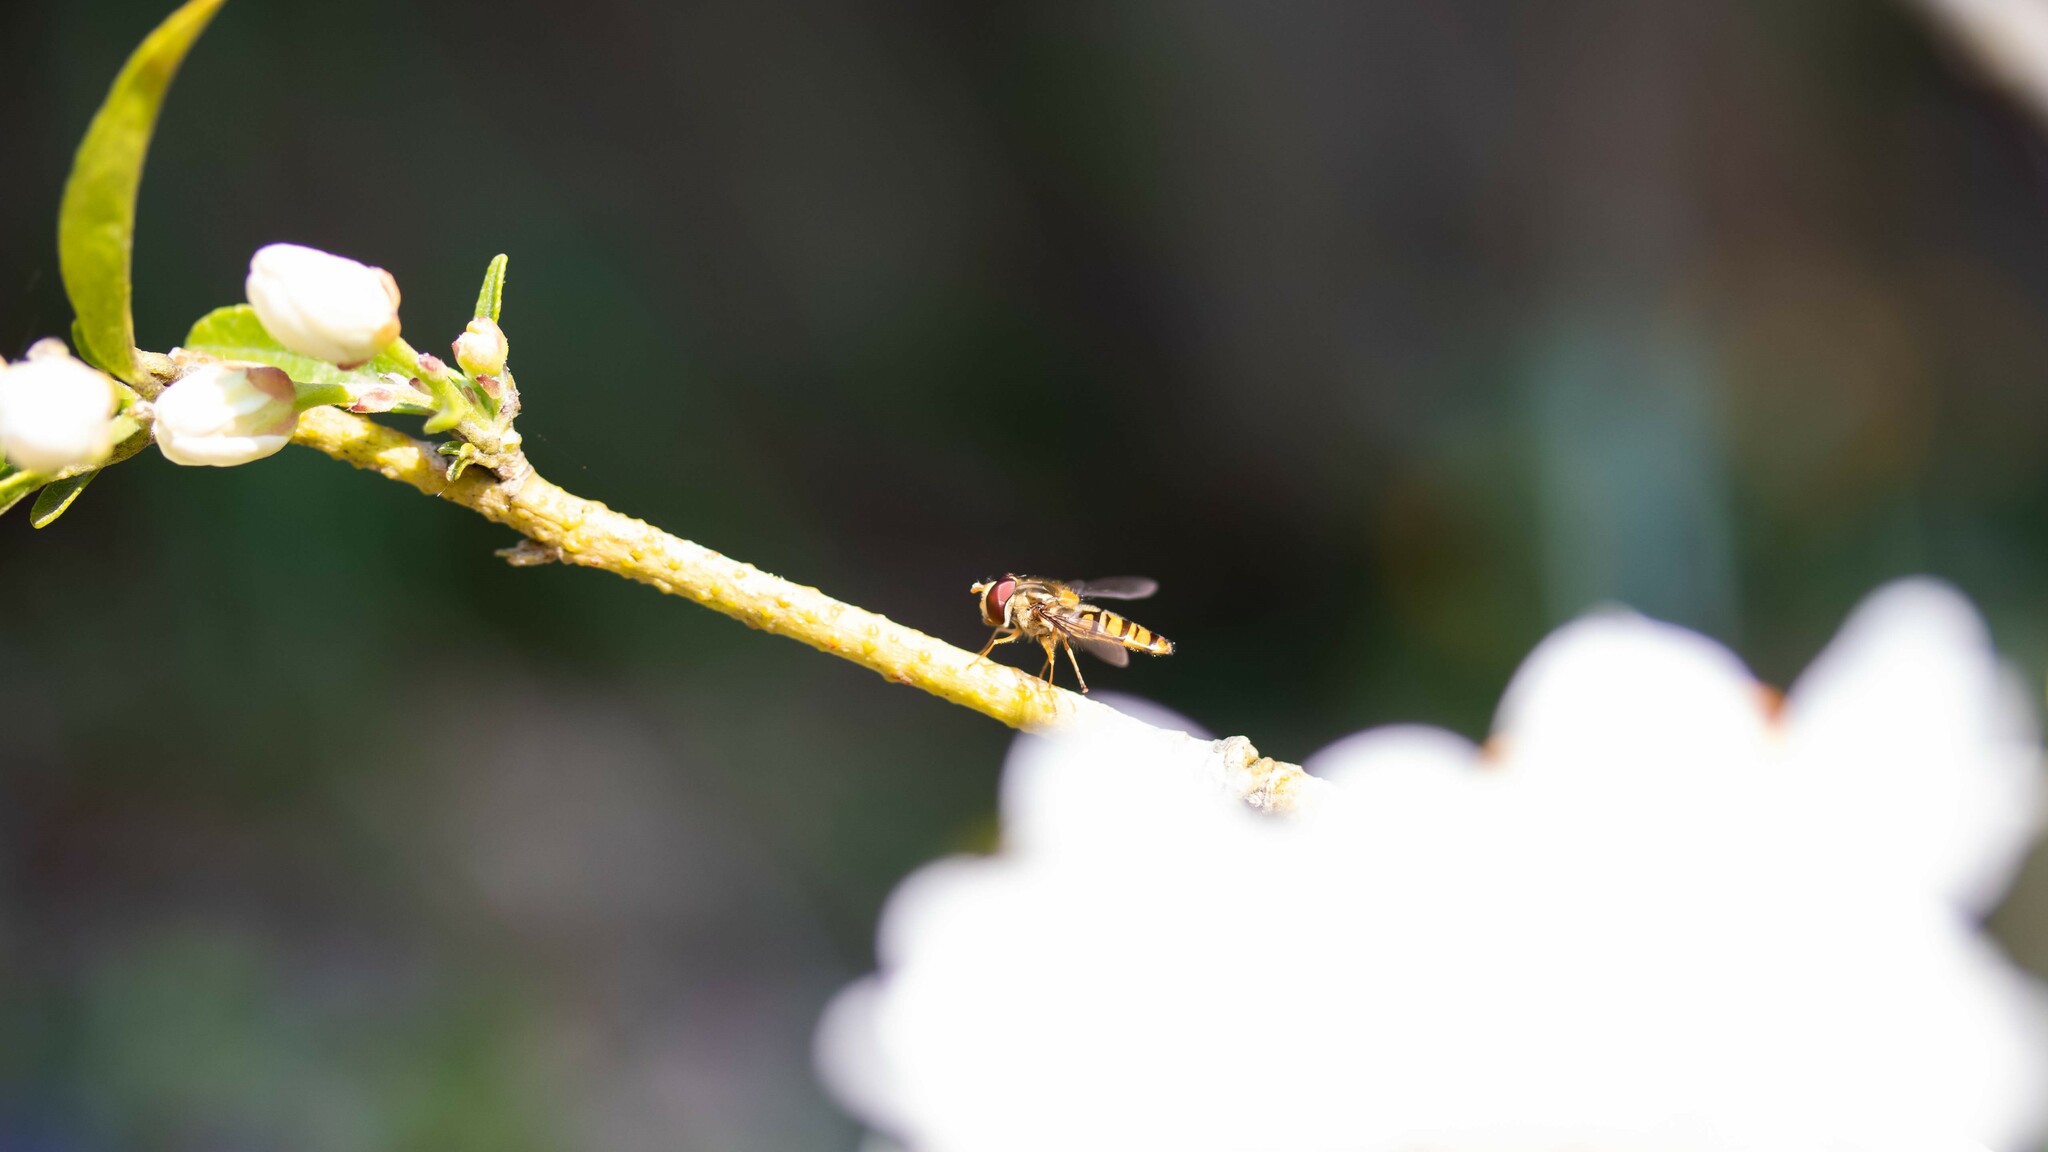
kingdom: Animalia
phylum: Arthropoda
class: Insecta
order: Diptera
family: Syrphidae
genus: Episyrphus
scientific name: Episyrphus balteatus
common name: Marmalade hoverfly
